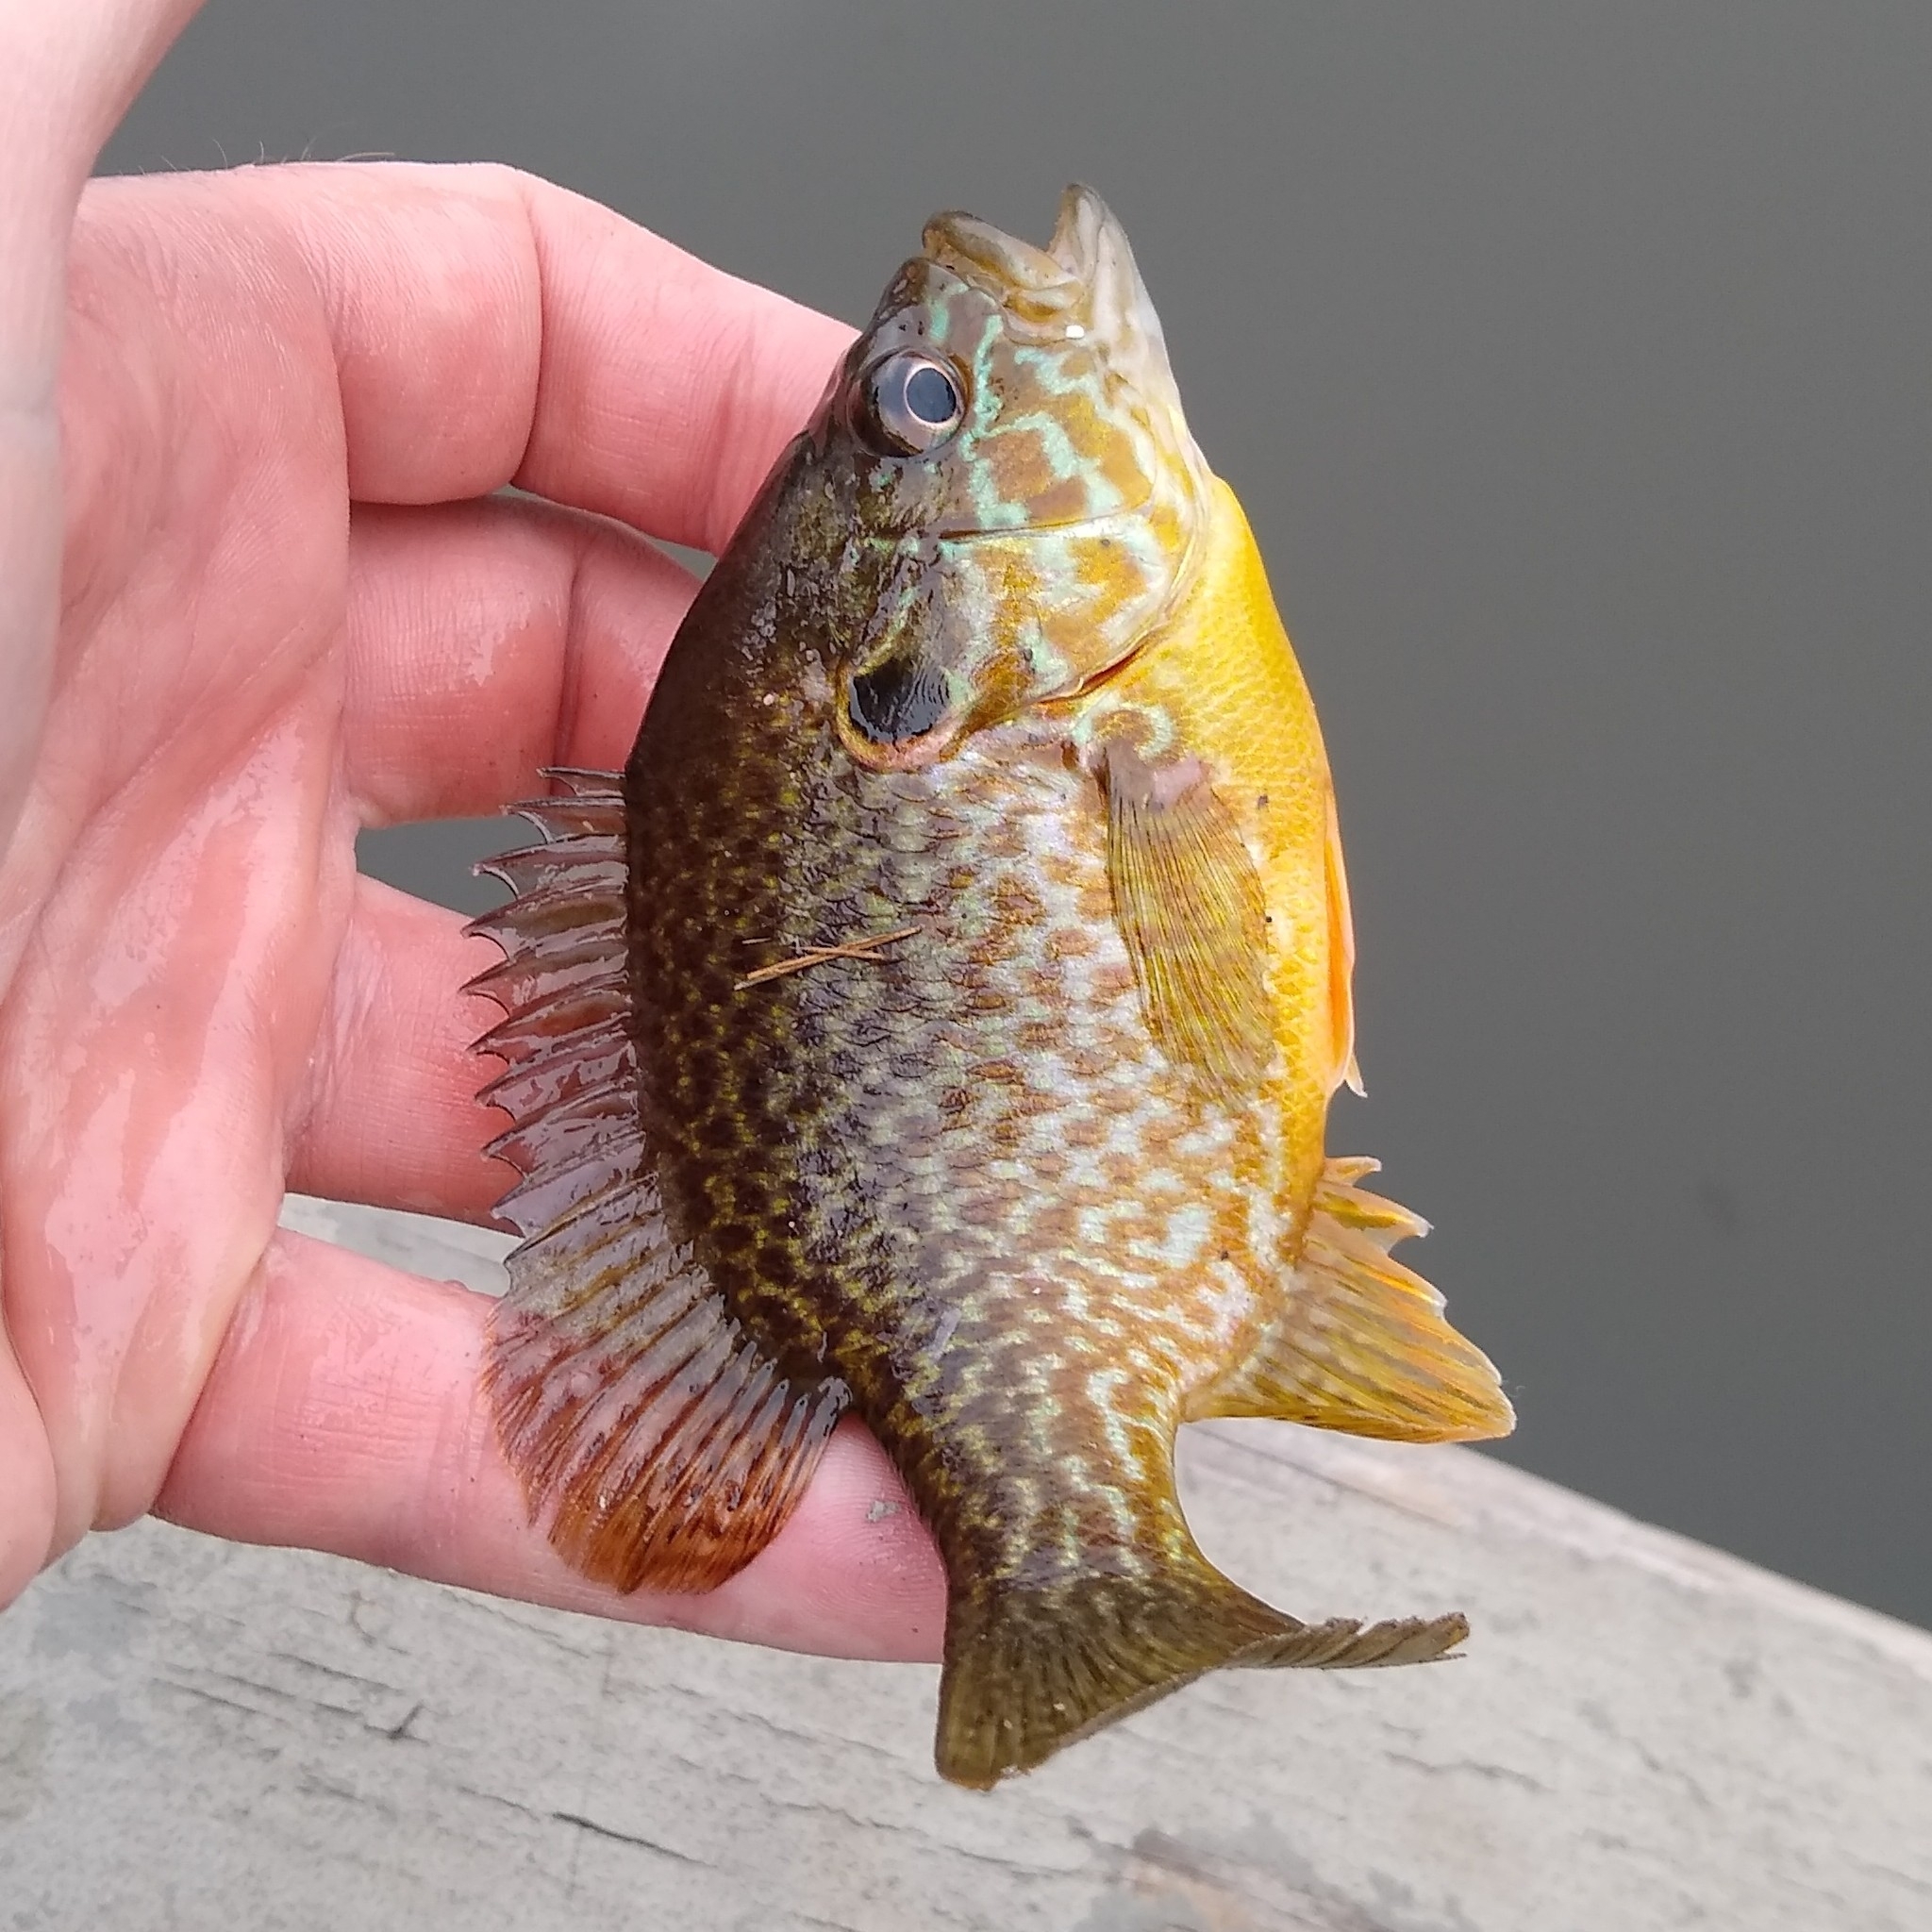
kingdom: Animalia
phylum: Chordata
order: Perciformes
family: Centrarchidae
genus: Lepomis
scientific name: Lepomis
